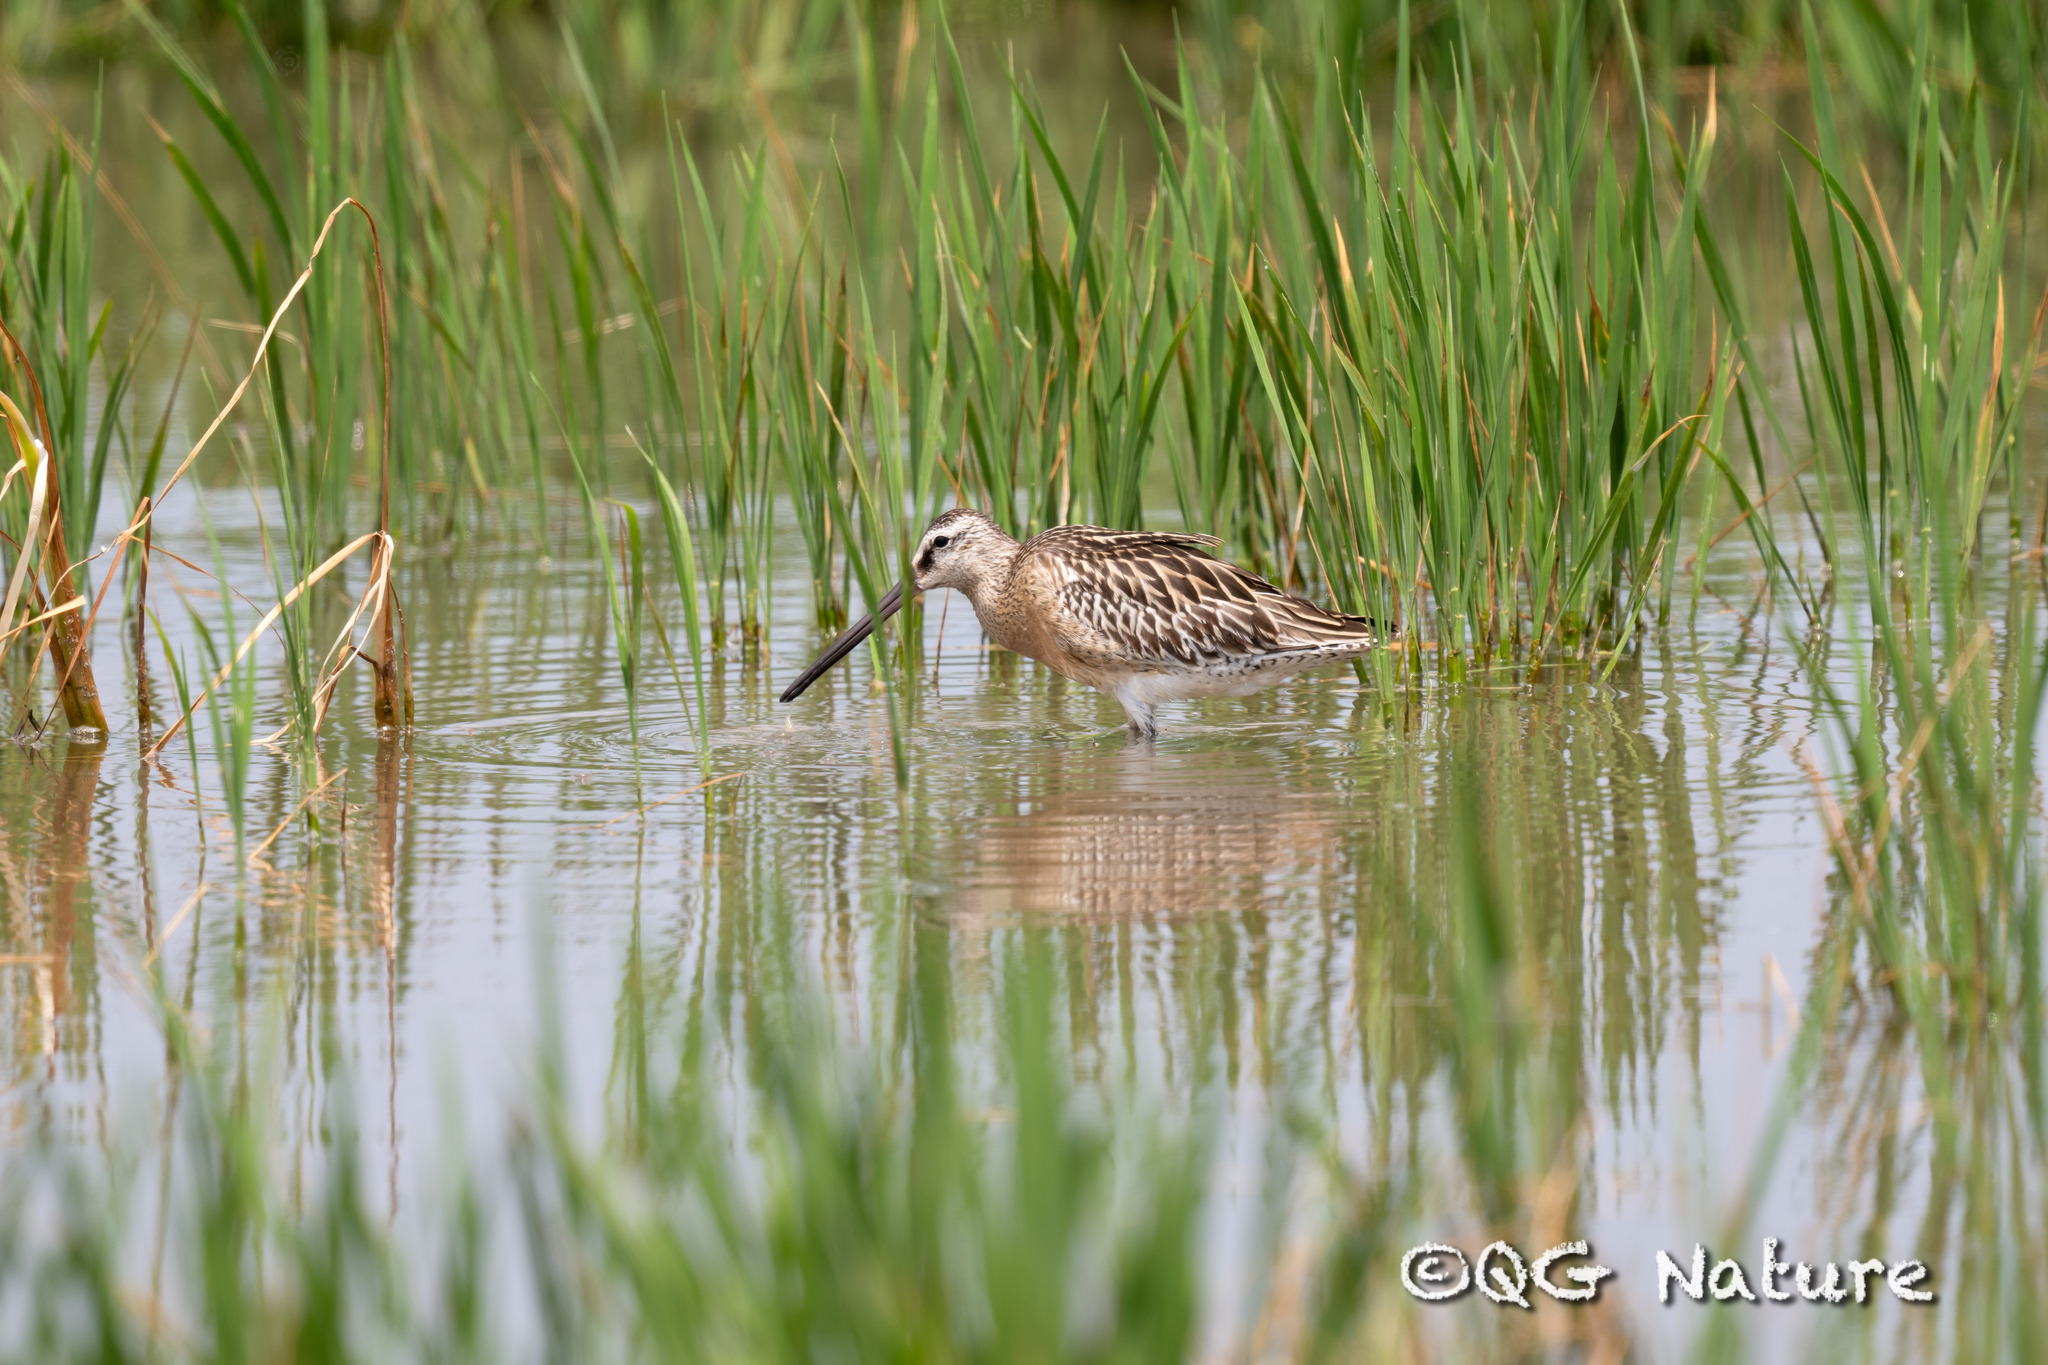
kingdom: Animalia
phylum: Chordata
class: Aves
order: Charadriiformes
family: Scolopacidae
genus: Limnodromus
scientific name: Limnodromus semipalmatus
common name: Asian dowitcher
